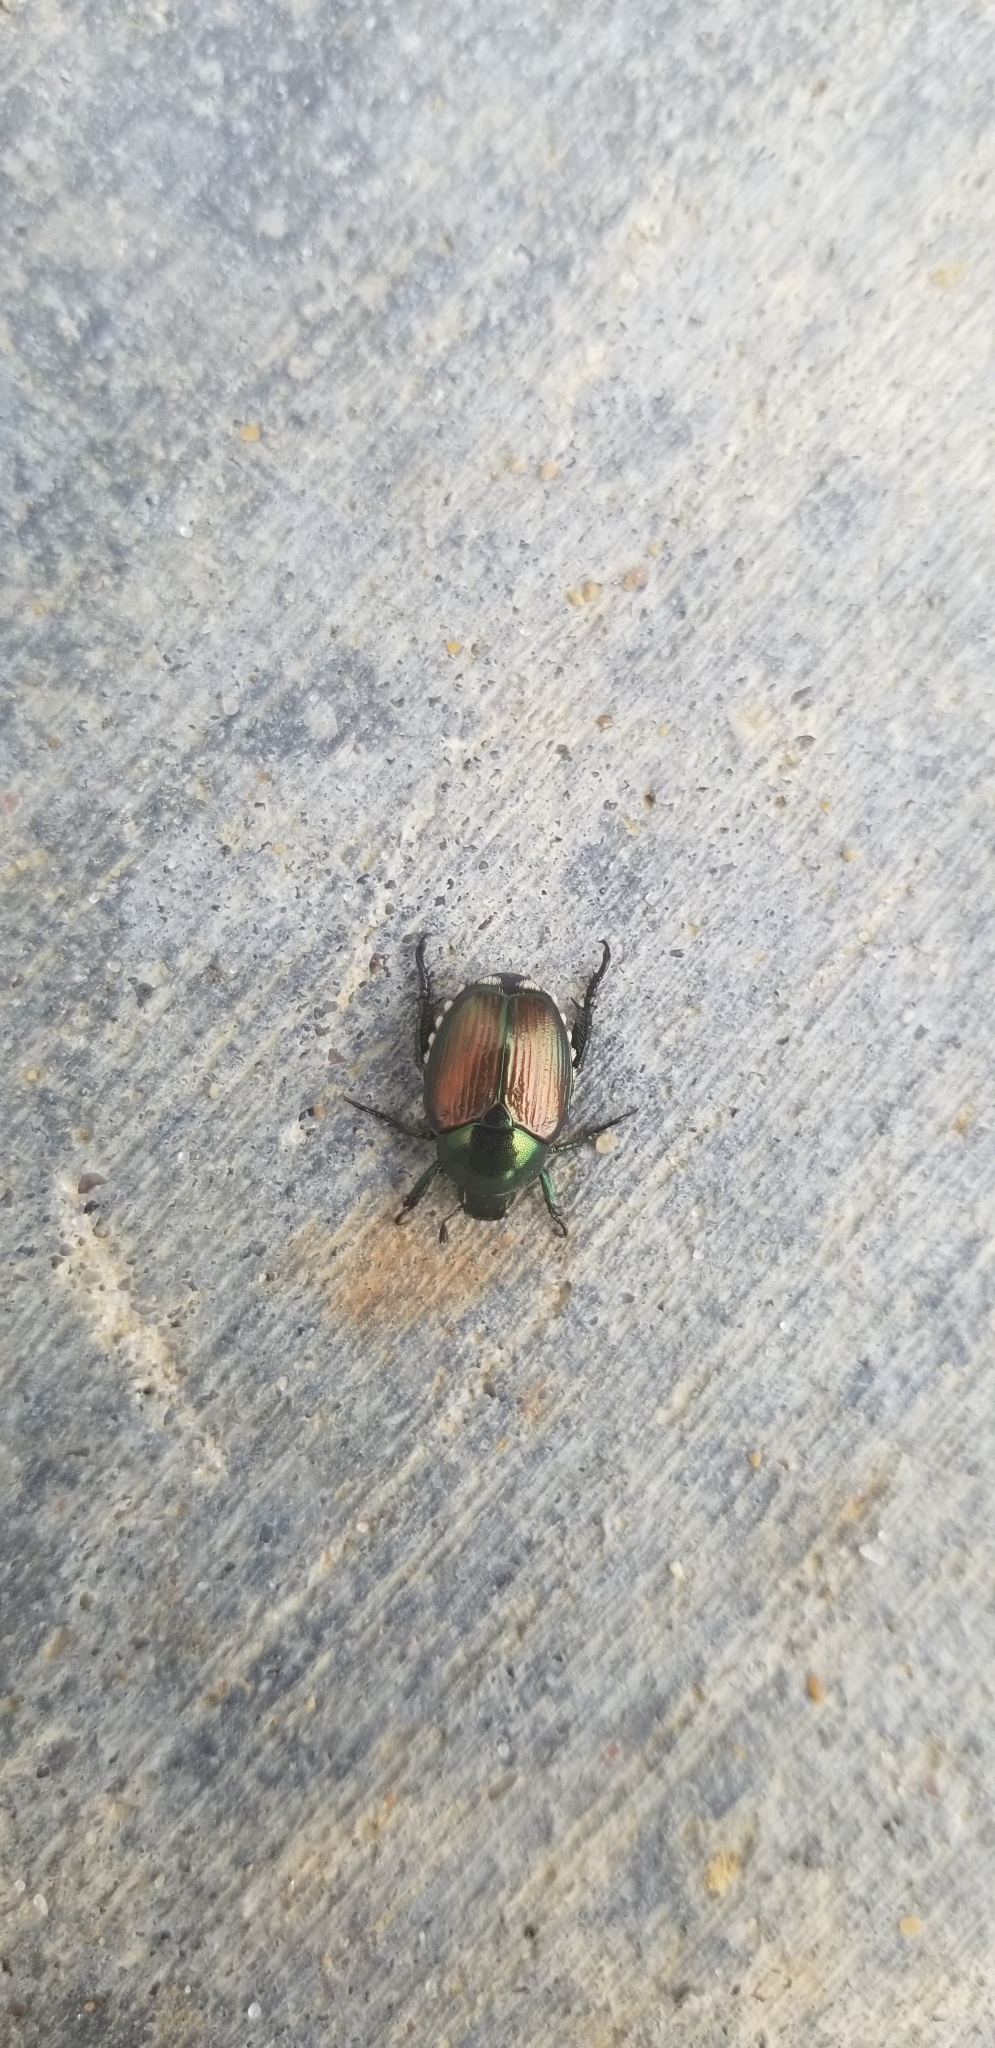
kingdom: Animalia
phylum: Arthropoda
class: Insecta
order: Coleoptera
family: Scarabaeidae
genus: Popillia
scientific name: Popillia japonica
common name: Japanese beetle
